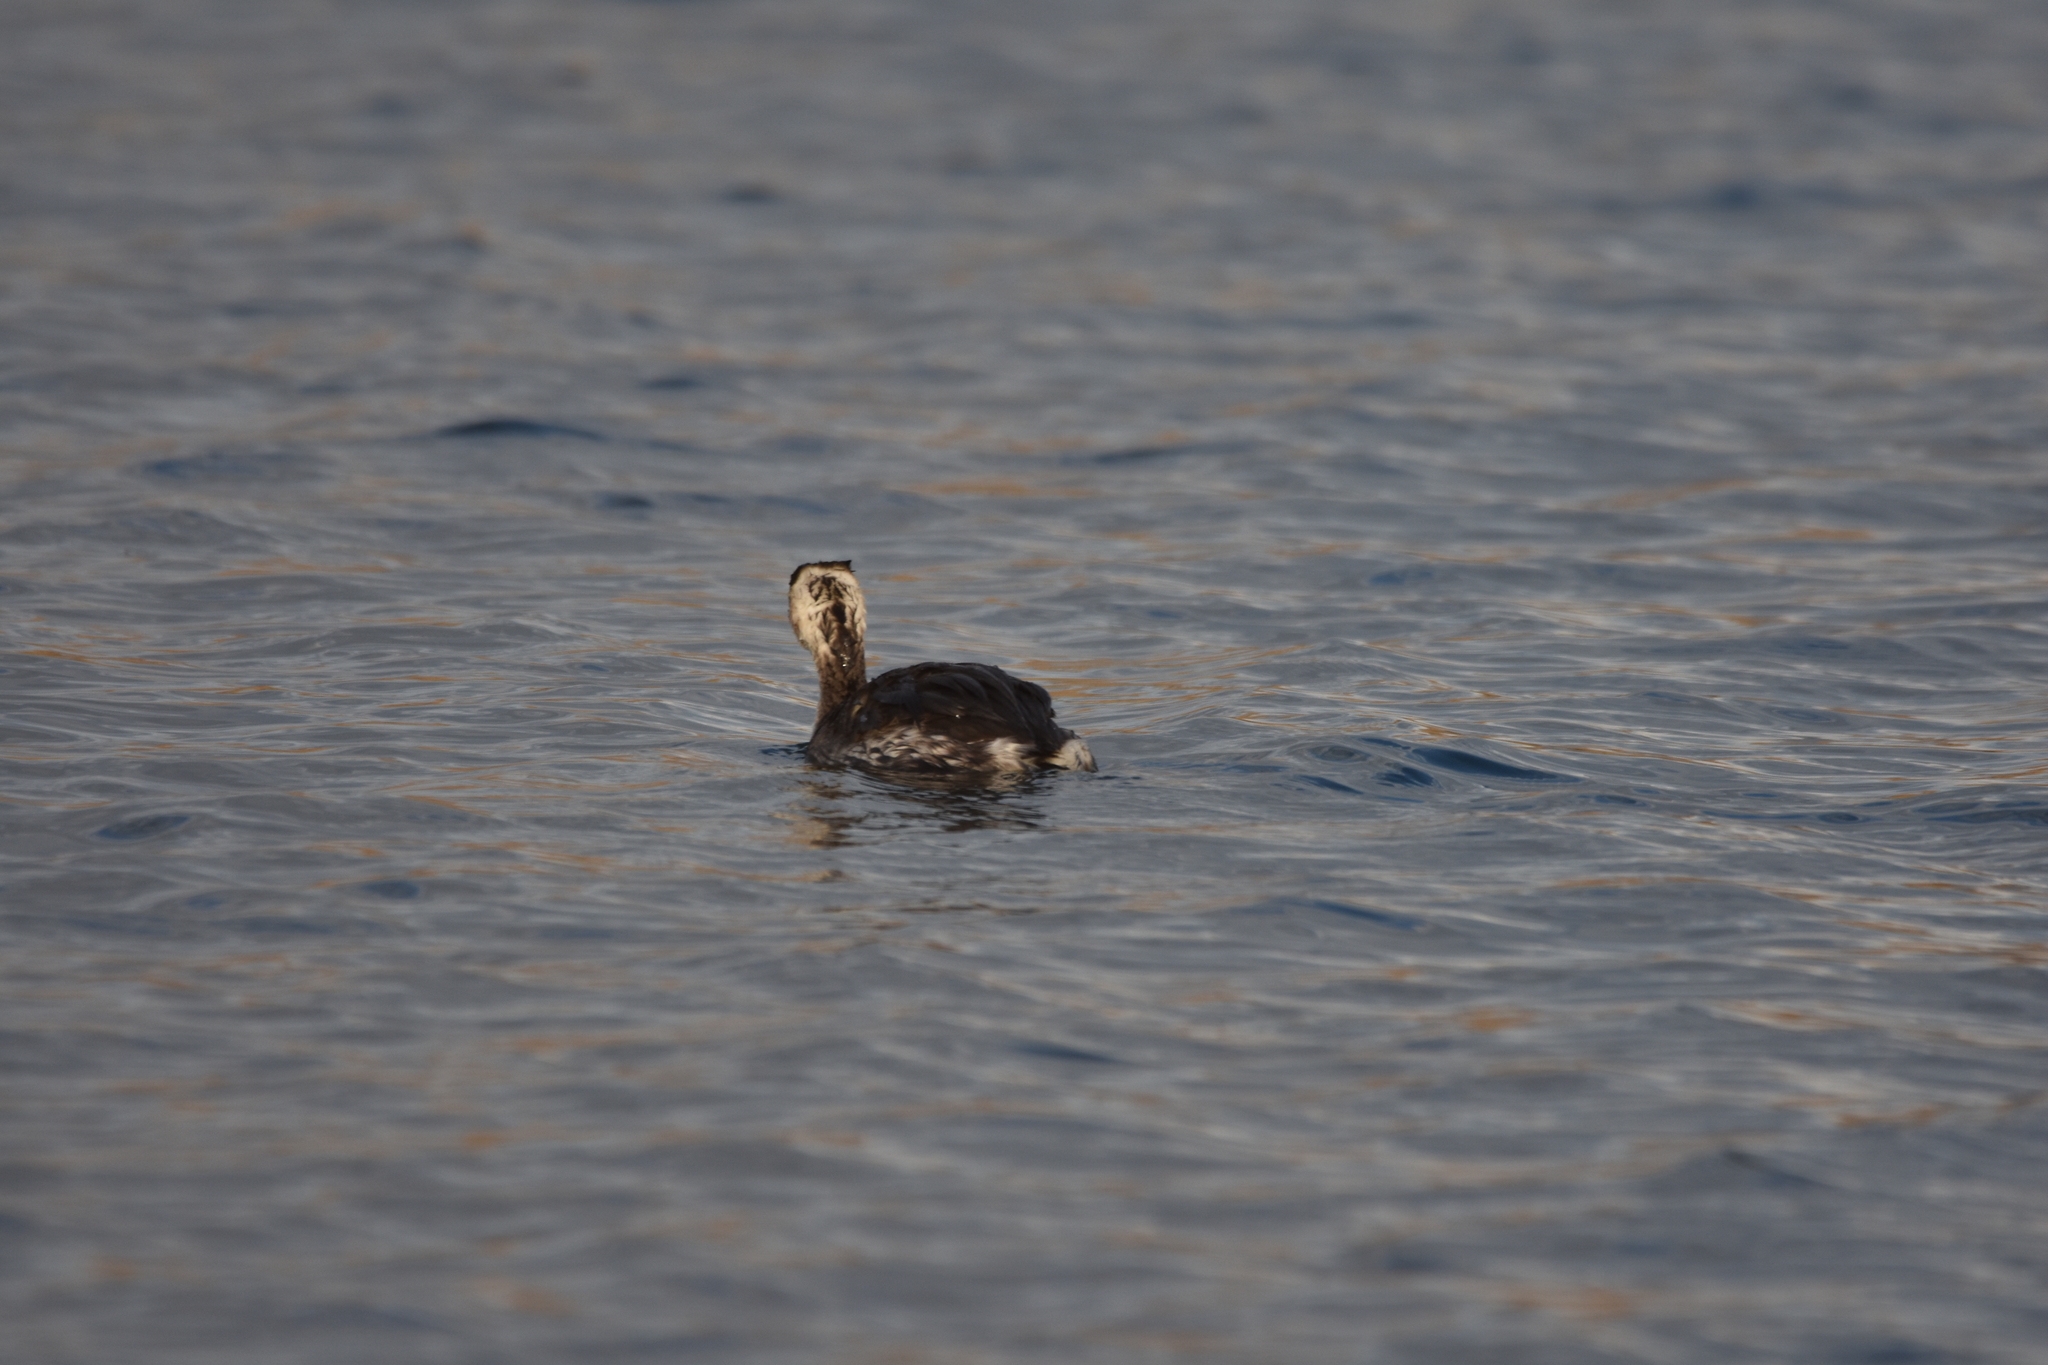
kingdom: Animalia
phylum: Chordata
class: Aves
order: Podicipediformes
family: Podicipedidae
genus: Podiceps
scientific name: Podiceps cristatus
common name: Great crested grebe
